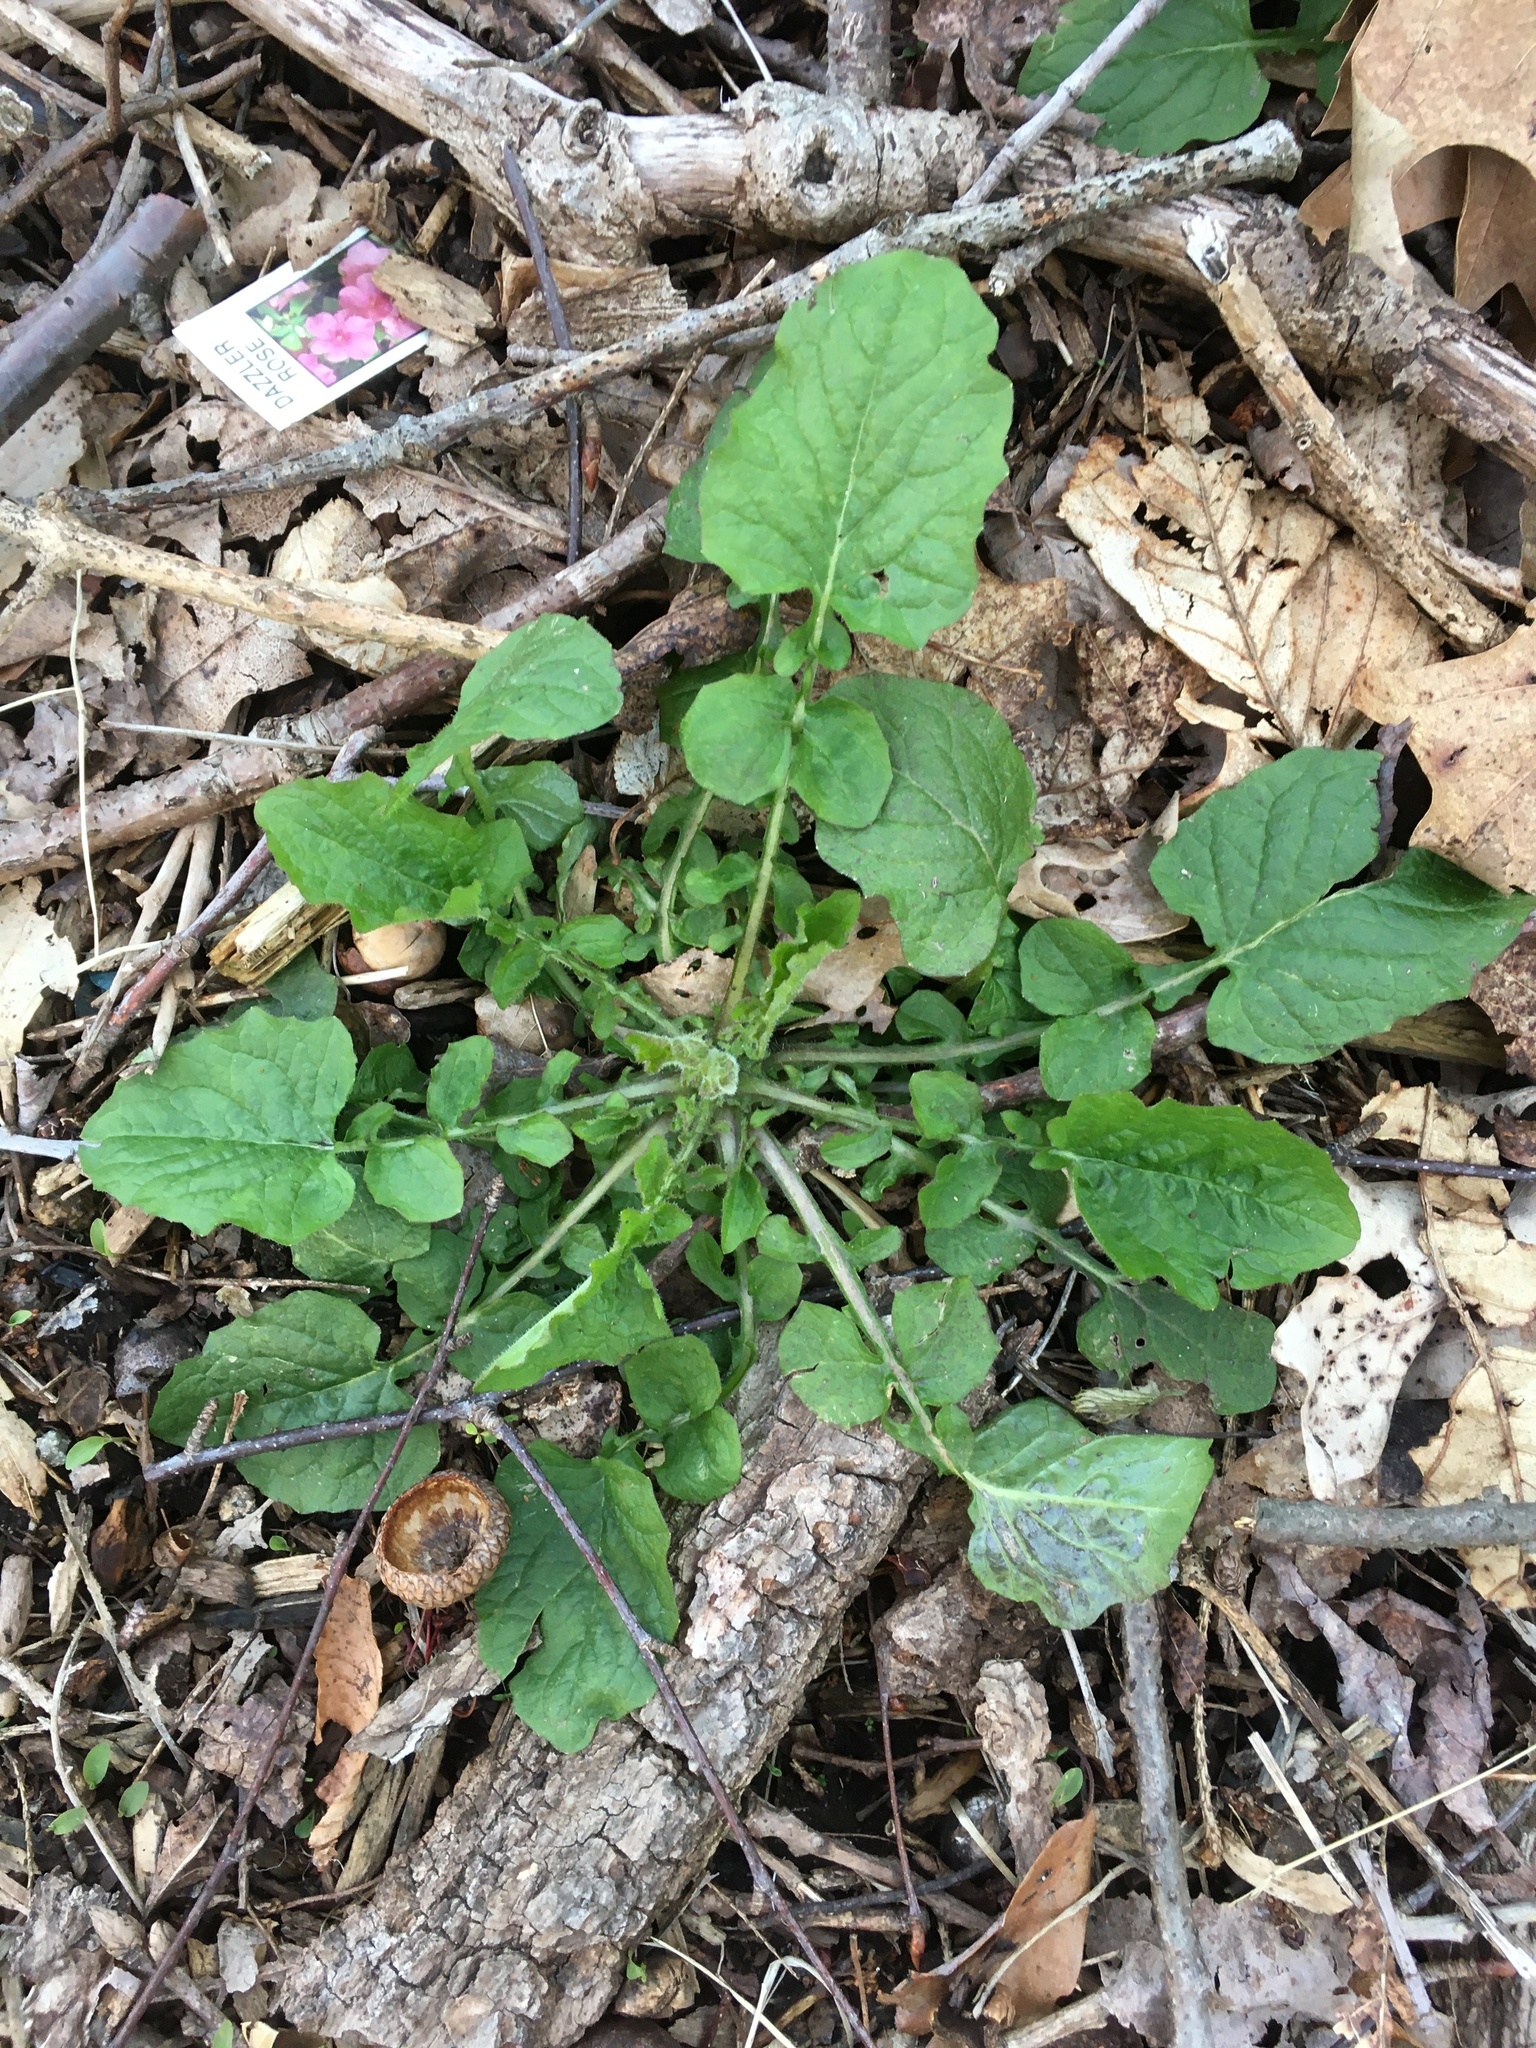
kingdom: Plantae
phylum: Tracheophyta
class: Magnoliopsida
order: Asterales
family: Asteraceae
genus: Lapsana
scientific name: Lapsana communis
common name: Nipplewort
